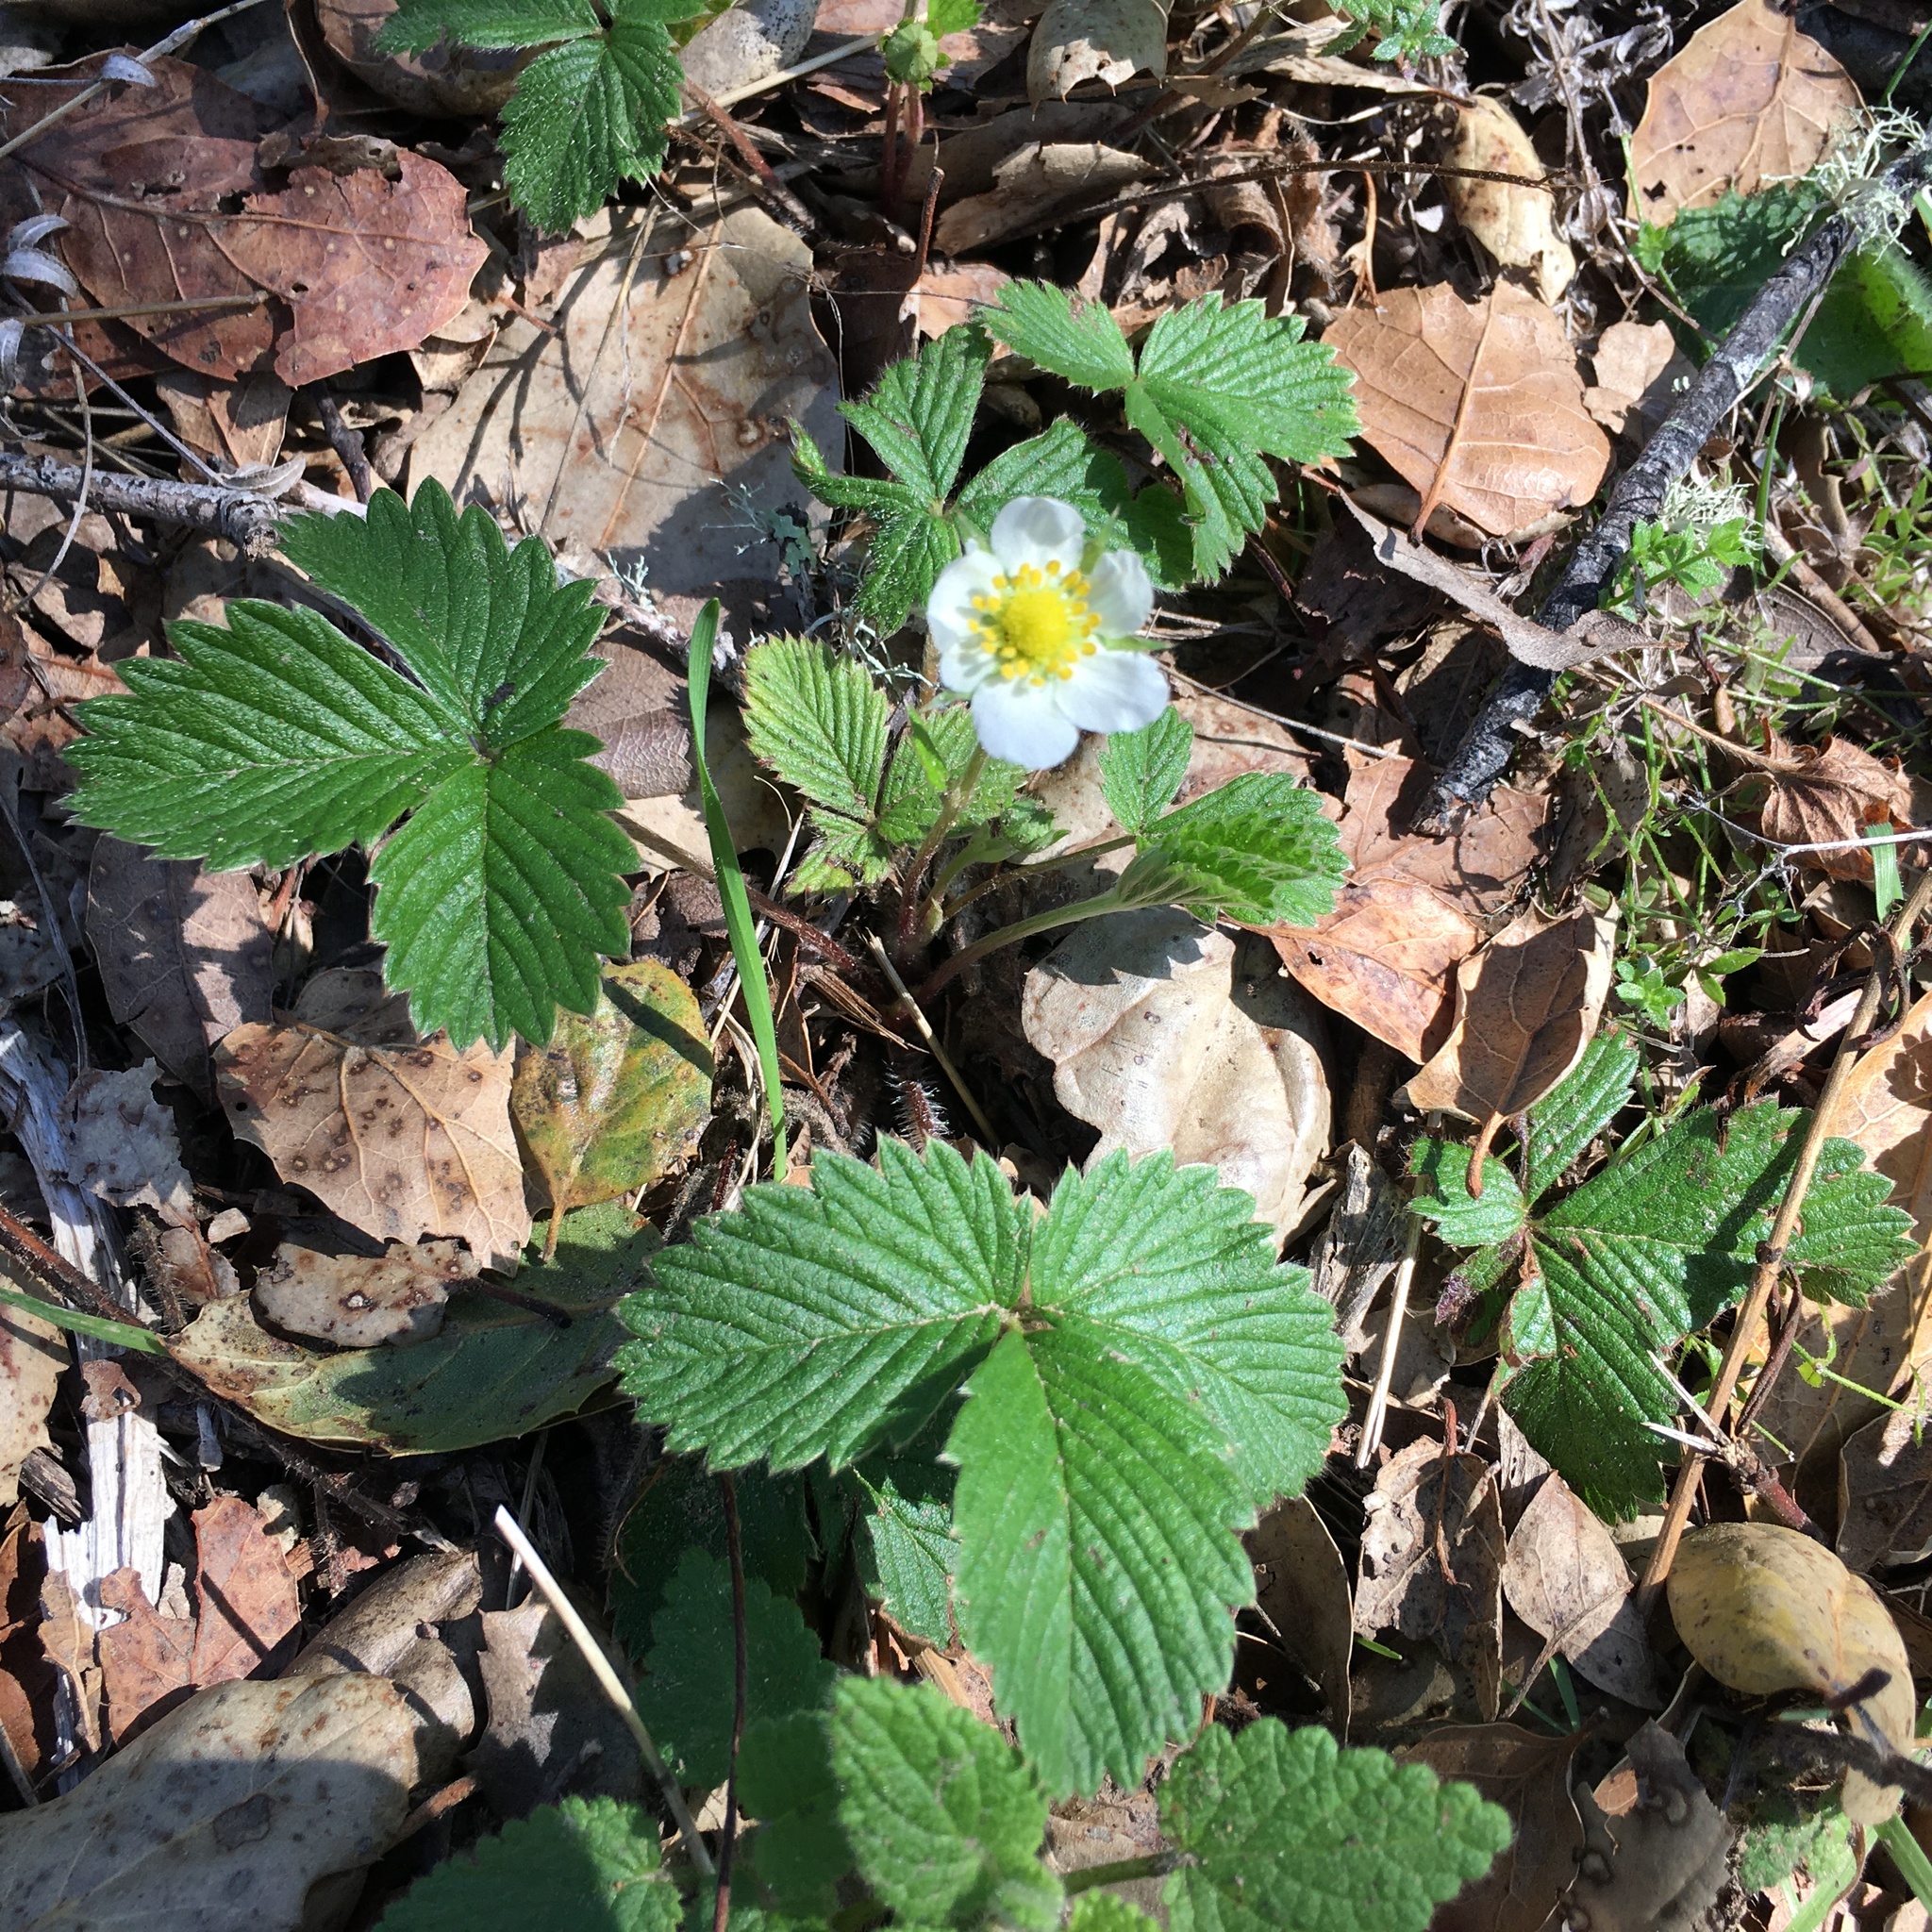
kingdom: Plantae
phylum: Tracheophyta
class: Magnoliopsida
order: Rosales
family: Rosaceae
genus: Fragaria
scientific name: Fragaria vesca
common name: Wild strawberry
